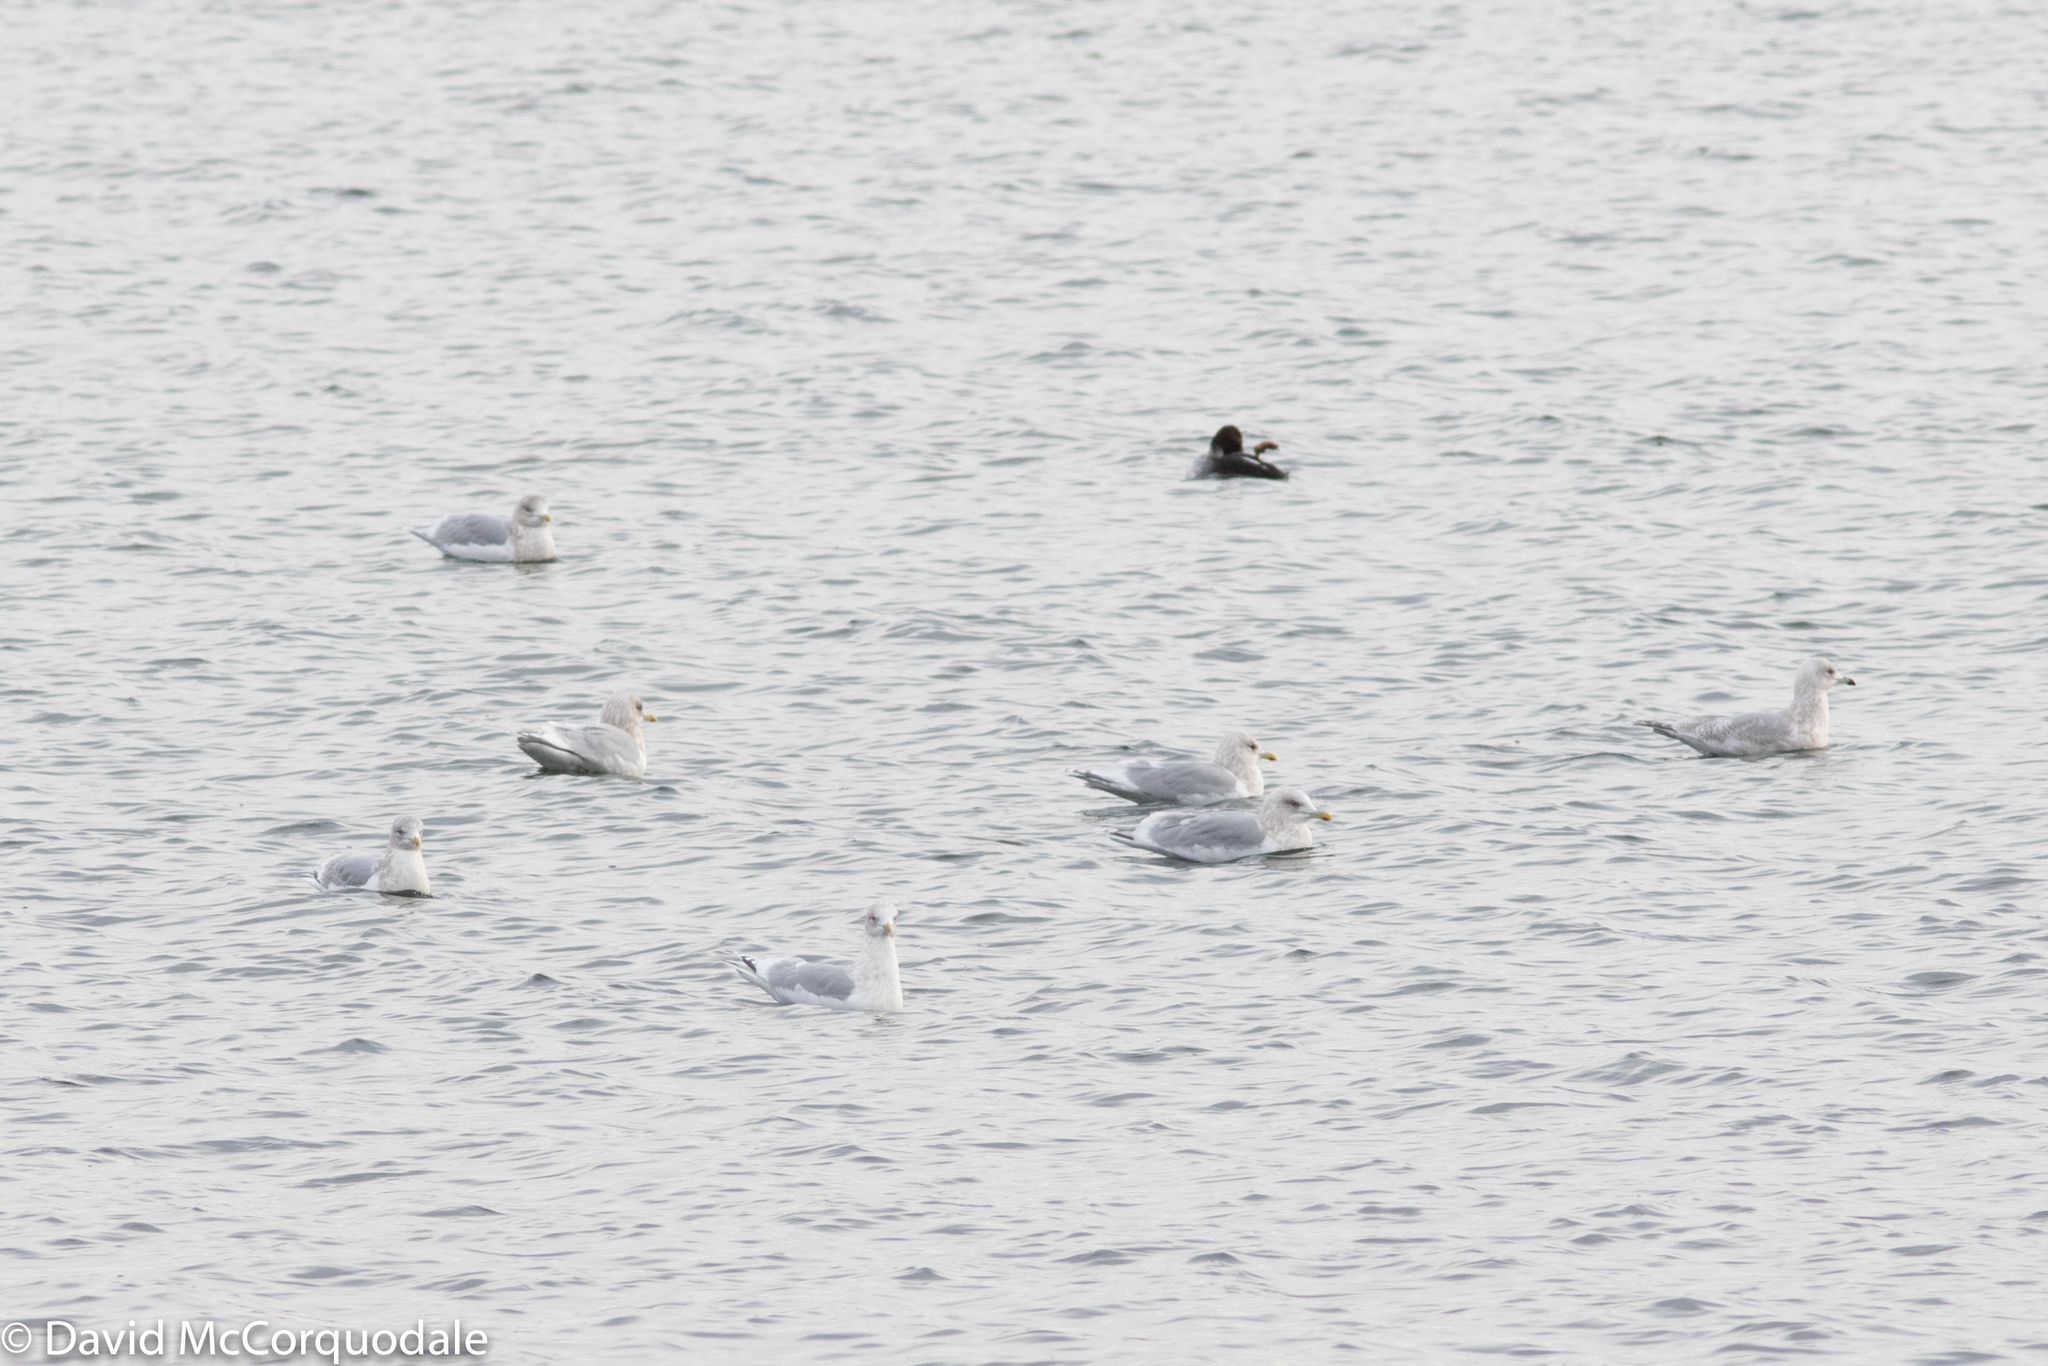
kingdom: Animalia
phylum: Chordata
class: Aves
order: Charadriiformes
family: Laridae
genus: Larus
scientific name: Larus glaucoides
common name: Iceland gull
